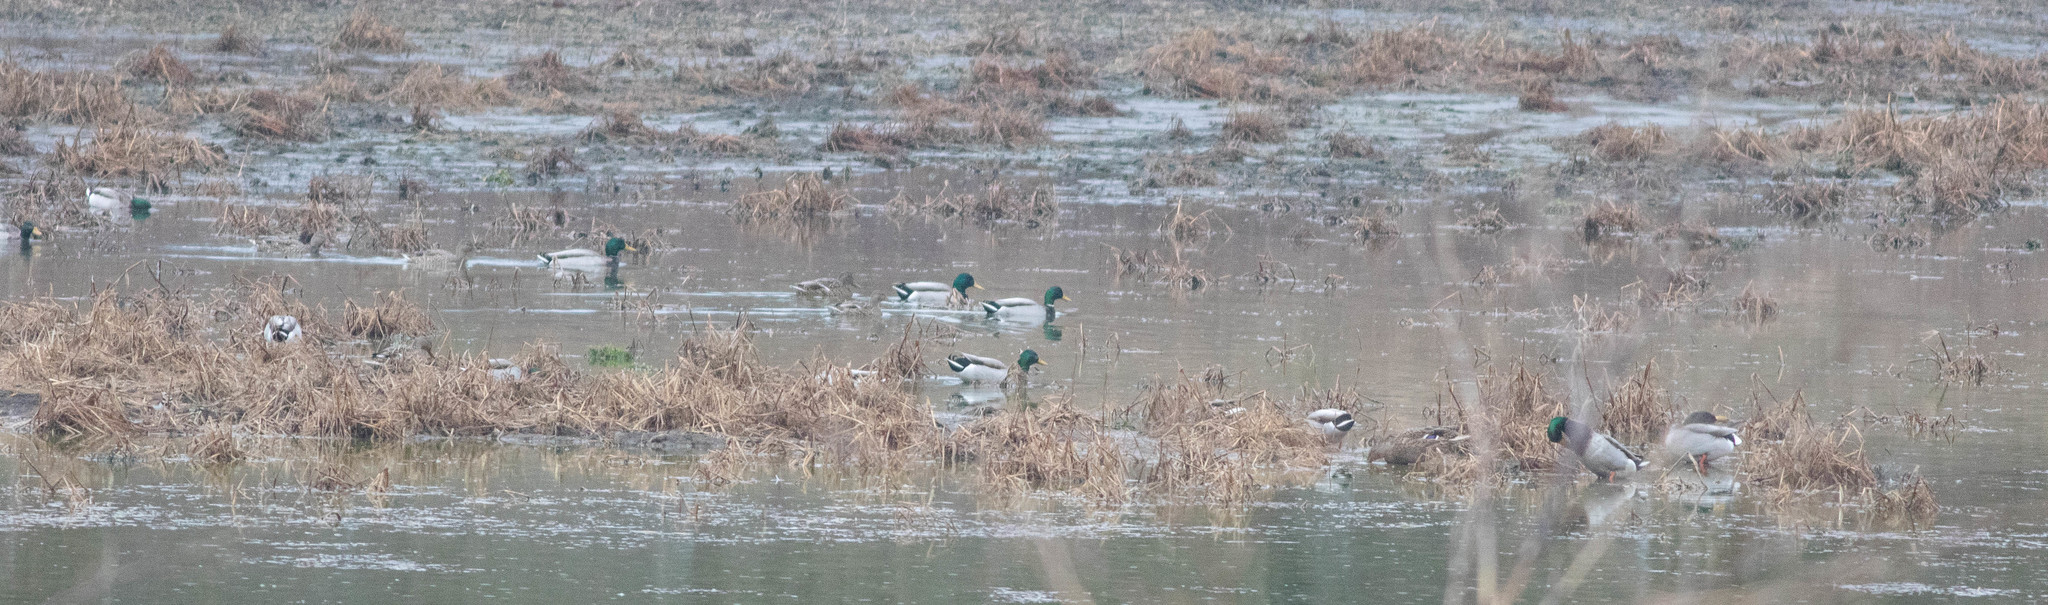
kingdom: Animalia
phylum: Chordata
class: Aves
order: Anseriformes
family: Anatidae
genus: Anas
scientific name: Anas platyrhynchos
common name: Mallard
